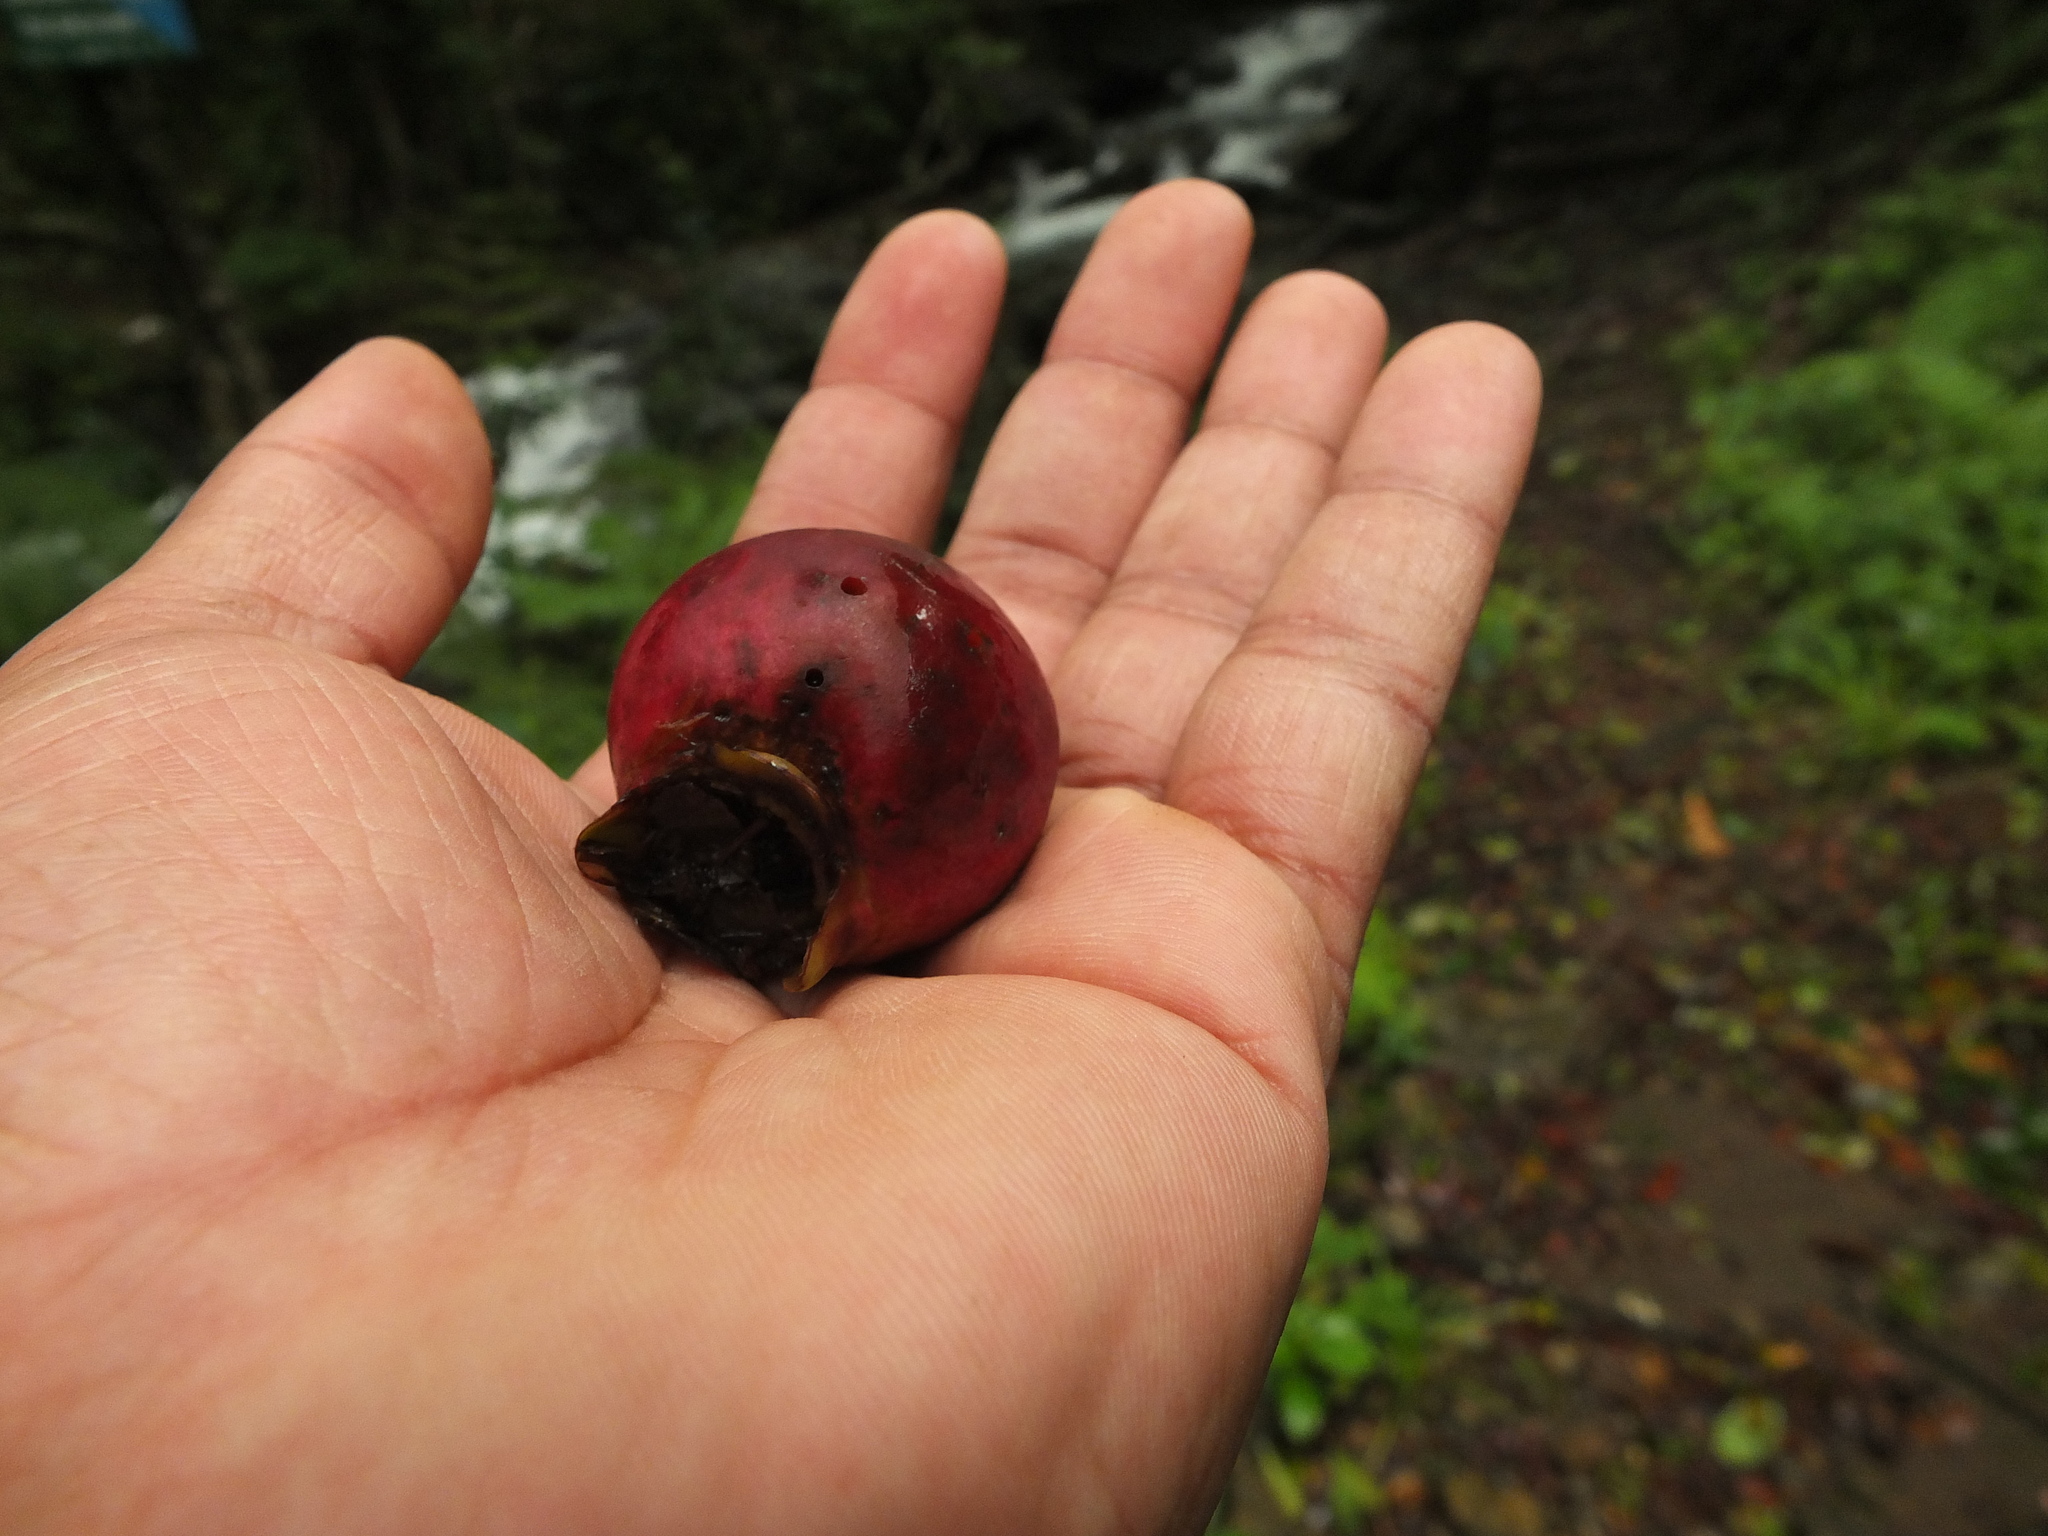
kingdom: Plantae
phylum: Tracheophyta
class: Magnoliopsida
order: Myrtales
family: Myrtaceae
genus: Syzygium
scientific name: Syzygium hemisphericum
